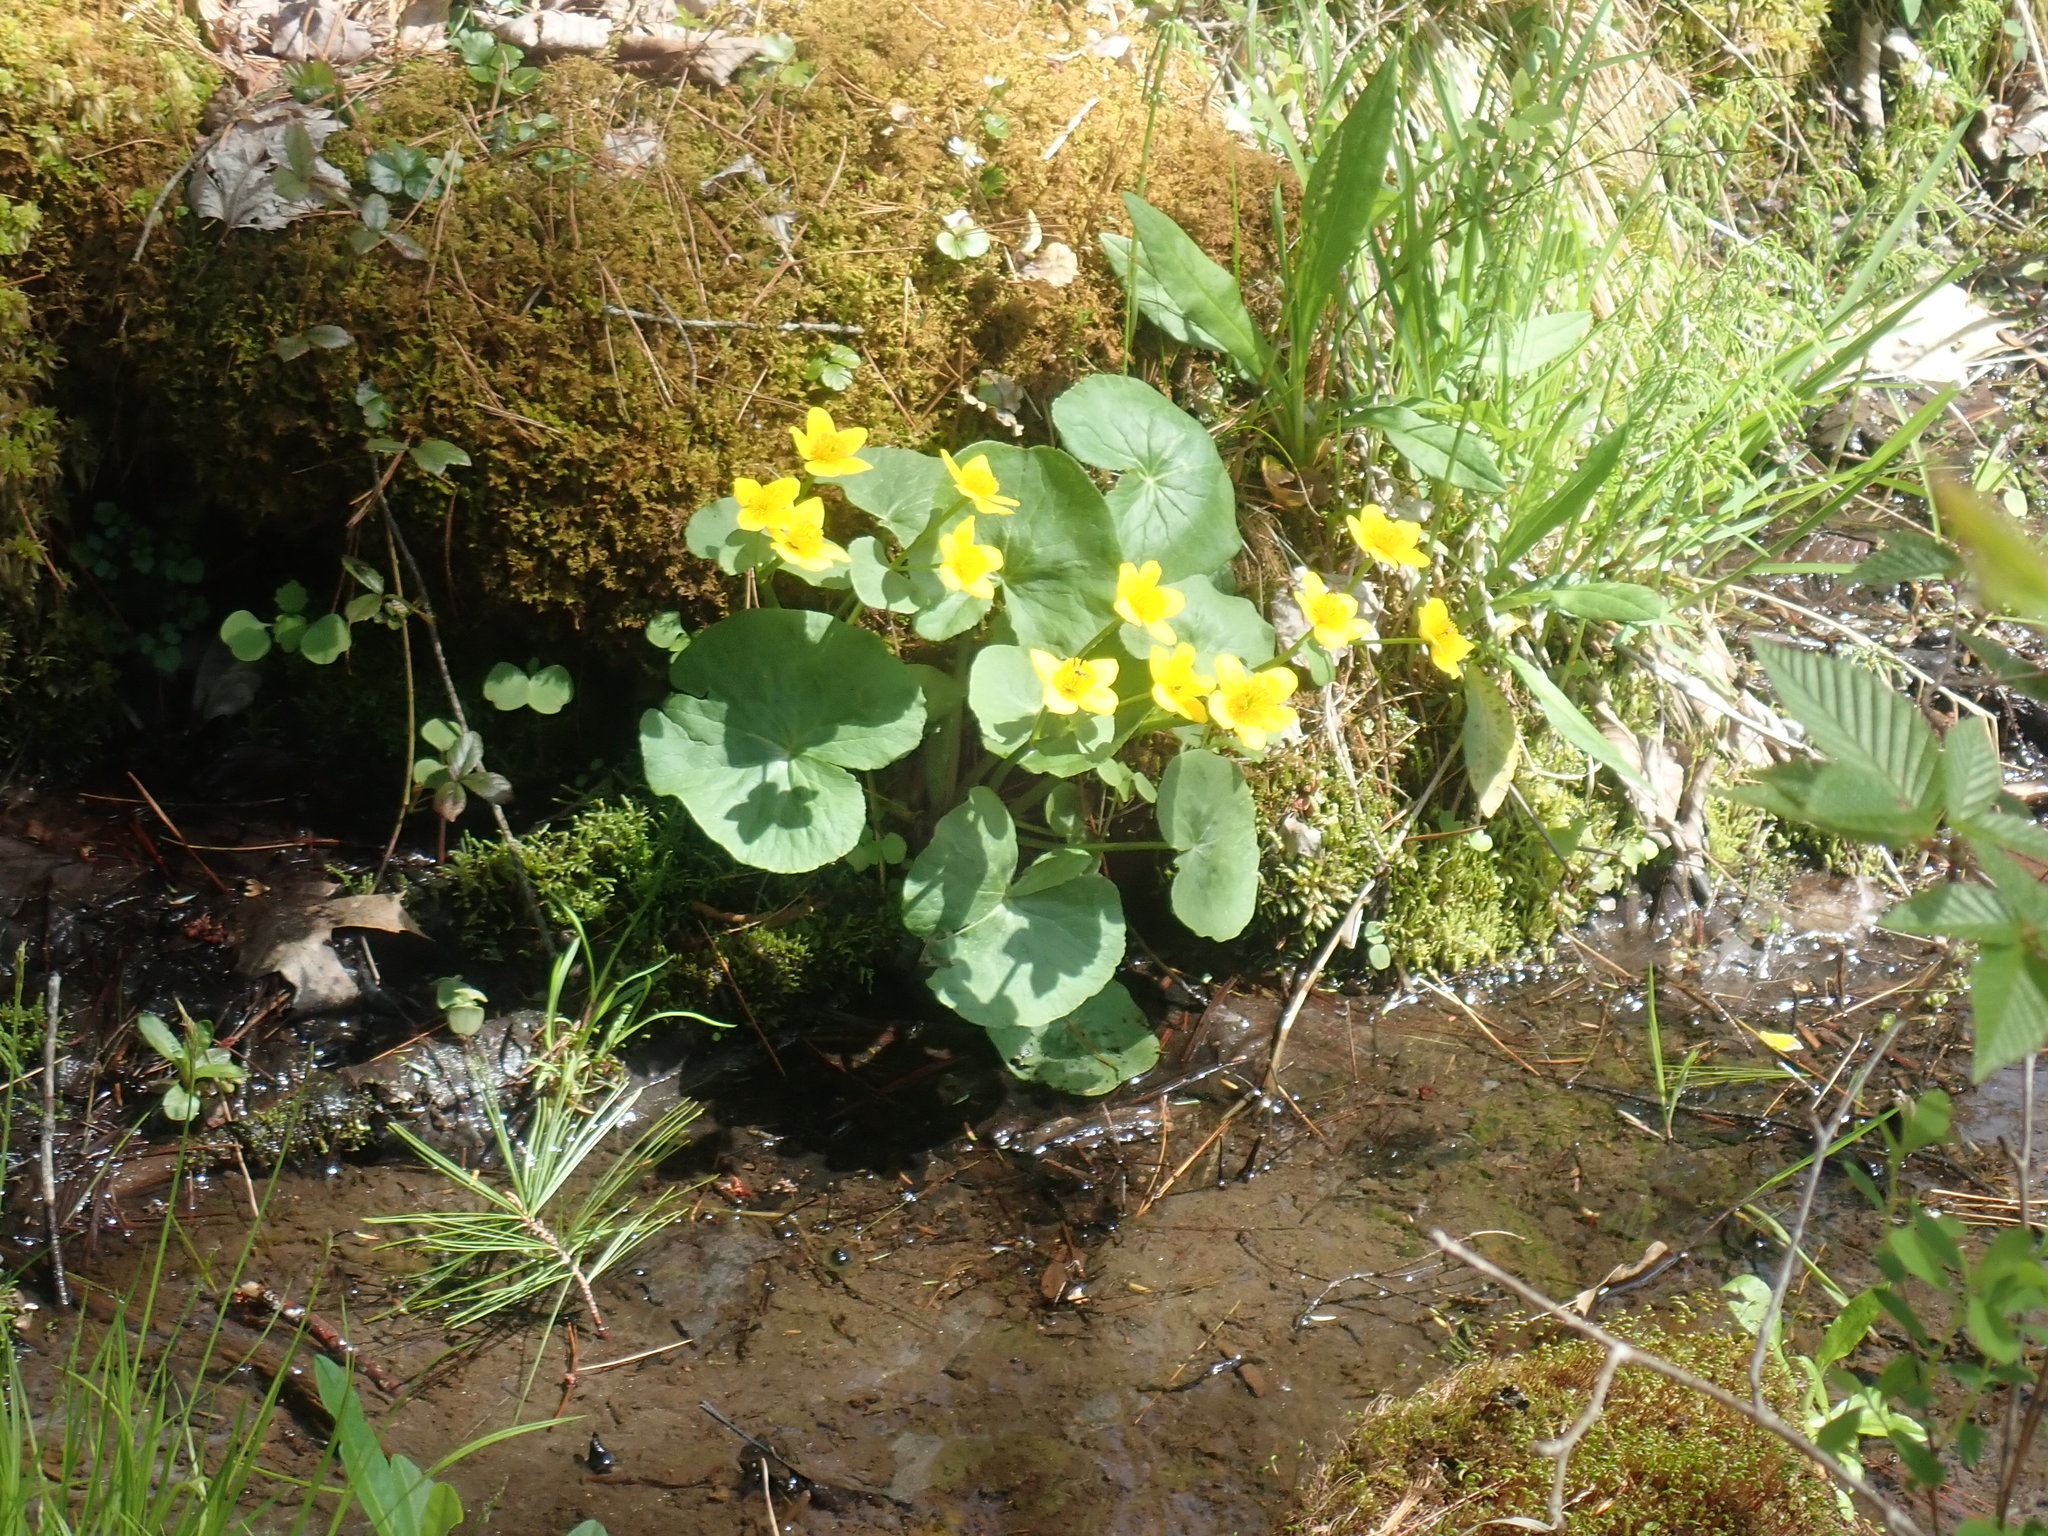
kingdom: Plantae
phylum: Tracheophyta
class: Magnoliopsida
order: Ranunculales
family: Ranunculaceae
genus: Caltha
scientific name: Caltha palustris
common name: Marsh marigold
